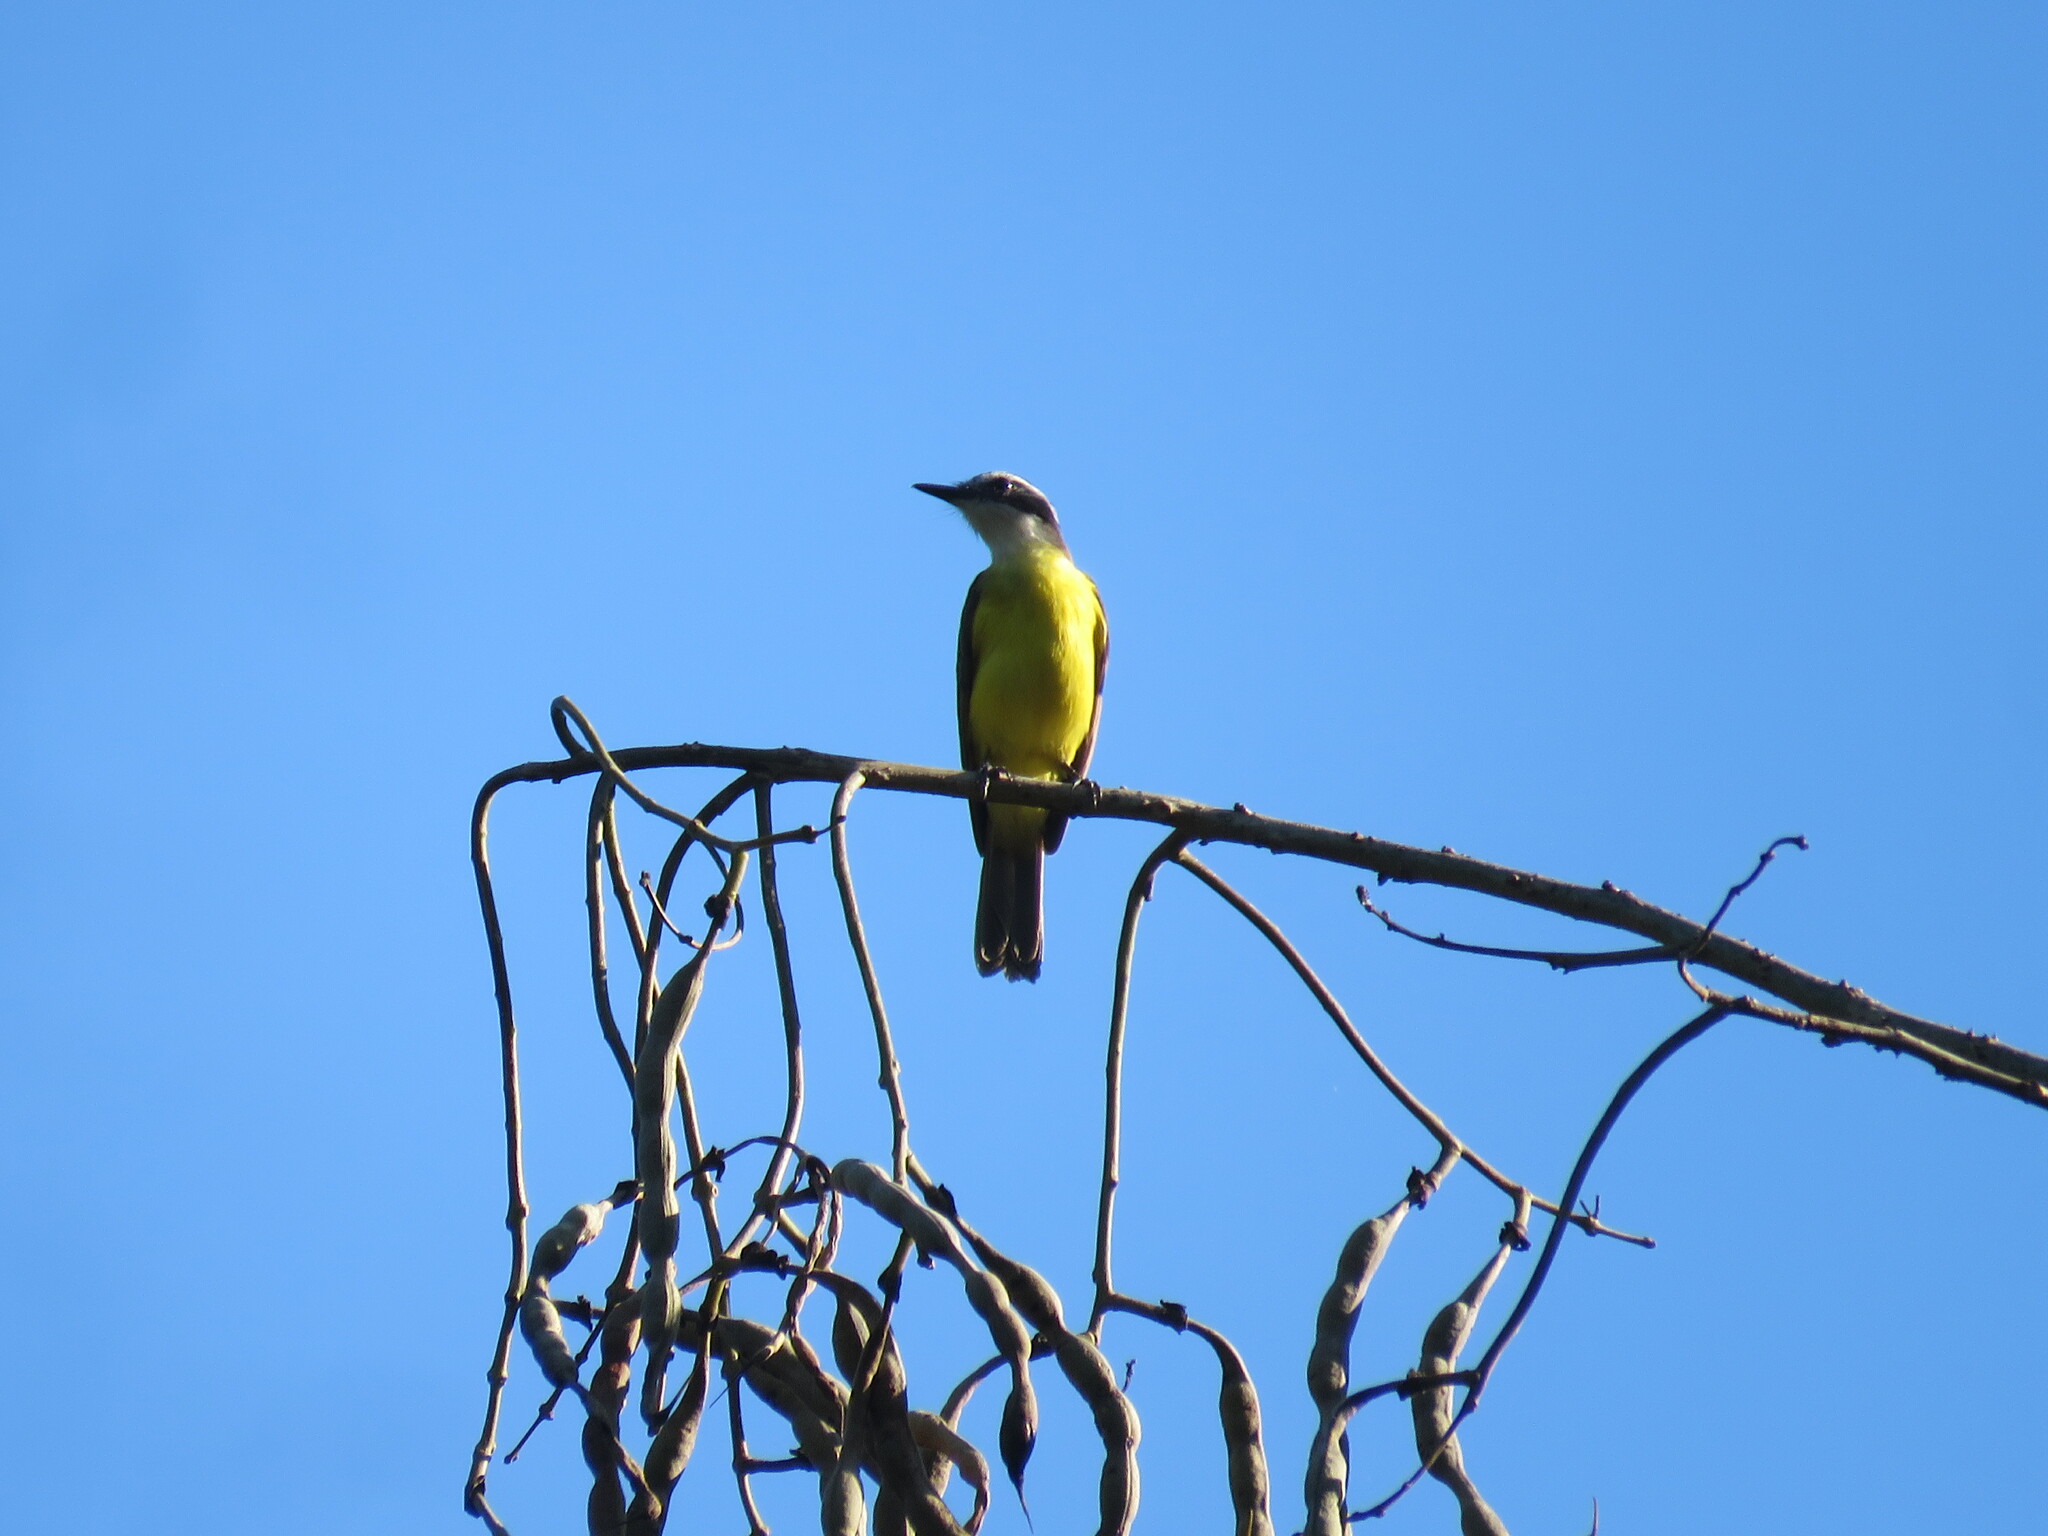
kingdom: Animalia
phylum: Chordata
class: Aves
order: Passeriformes
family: Tyrannidae
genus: Pitangus
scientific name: Pitangus lictor
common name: Lesser kiskadee
